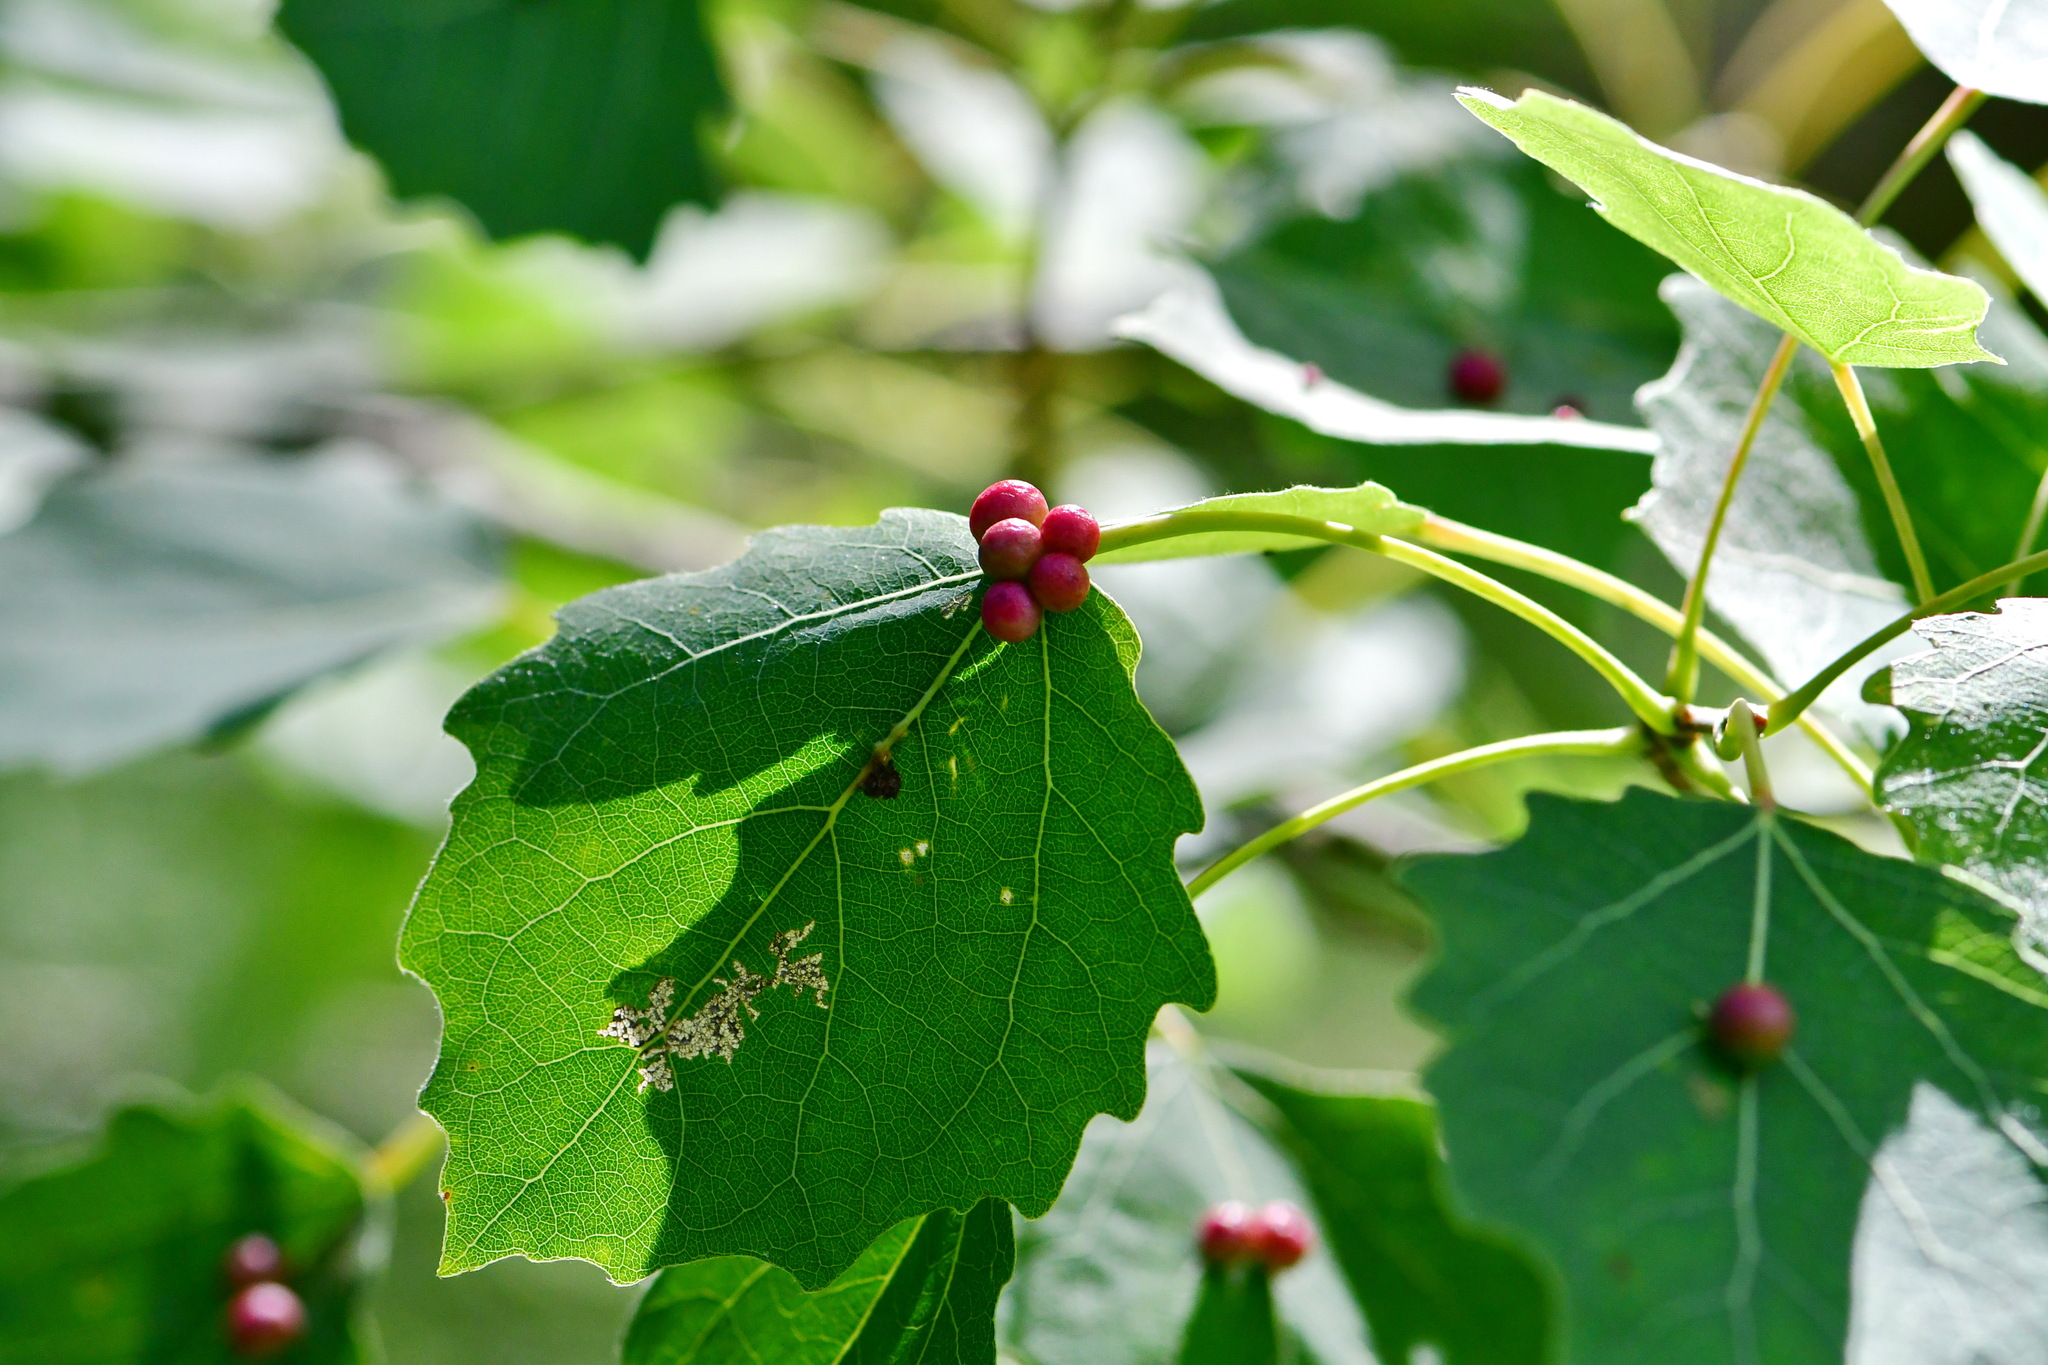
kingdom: Animalia
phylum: Arthropoda
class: Insecta
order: Diptera
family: Cecidomyiidae
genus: Harmandiola
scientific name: Harmandiola tremulae
